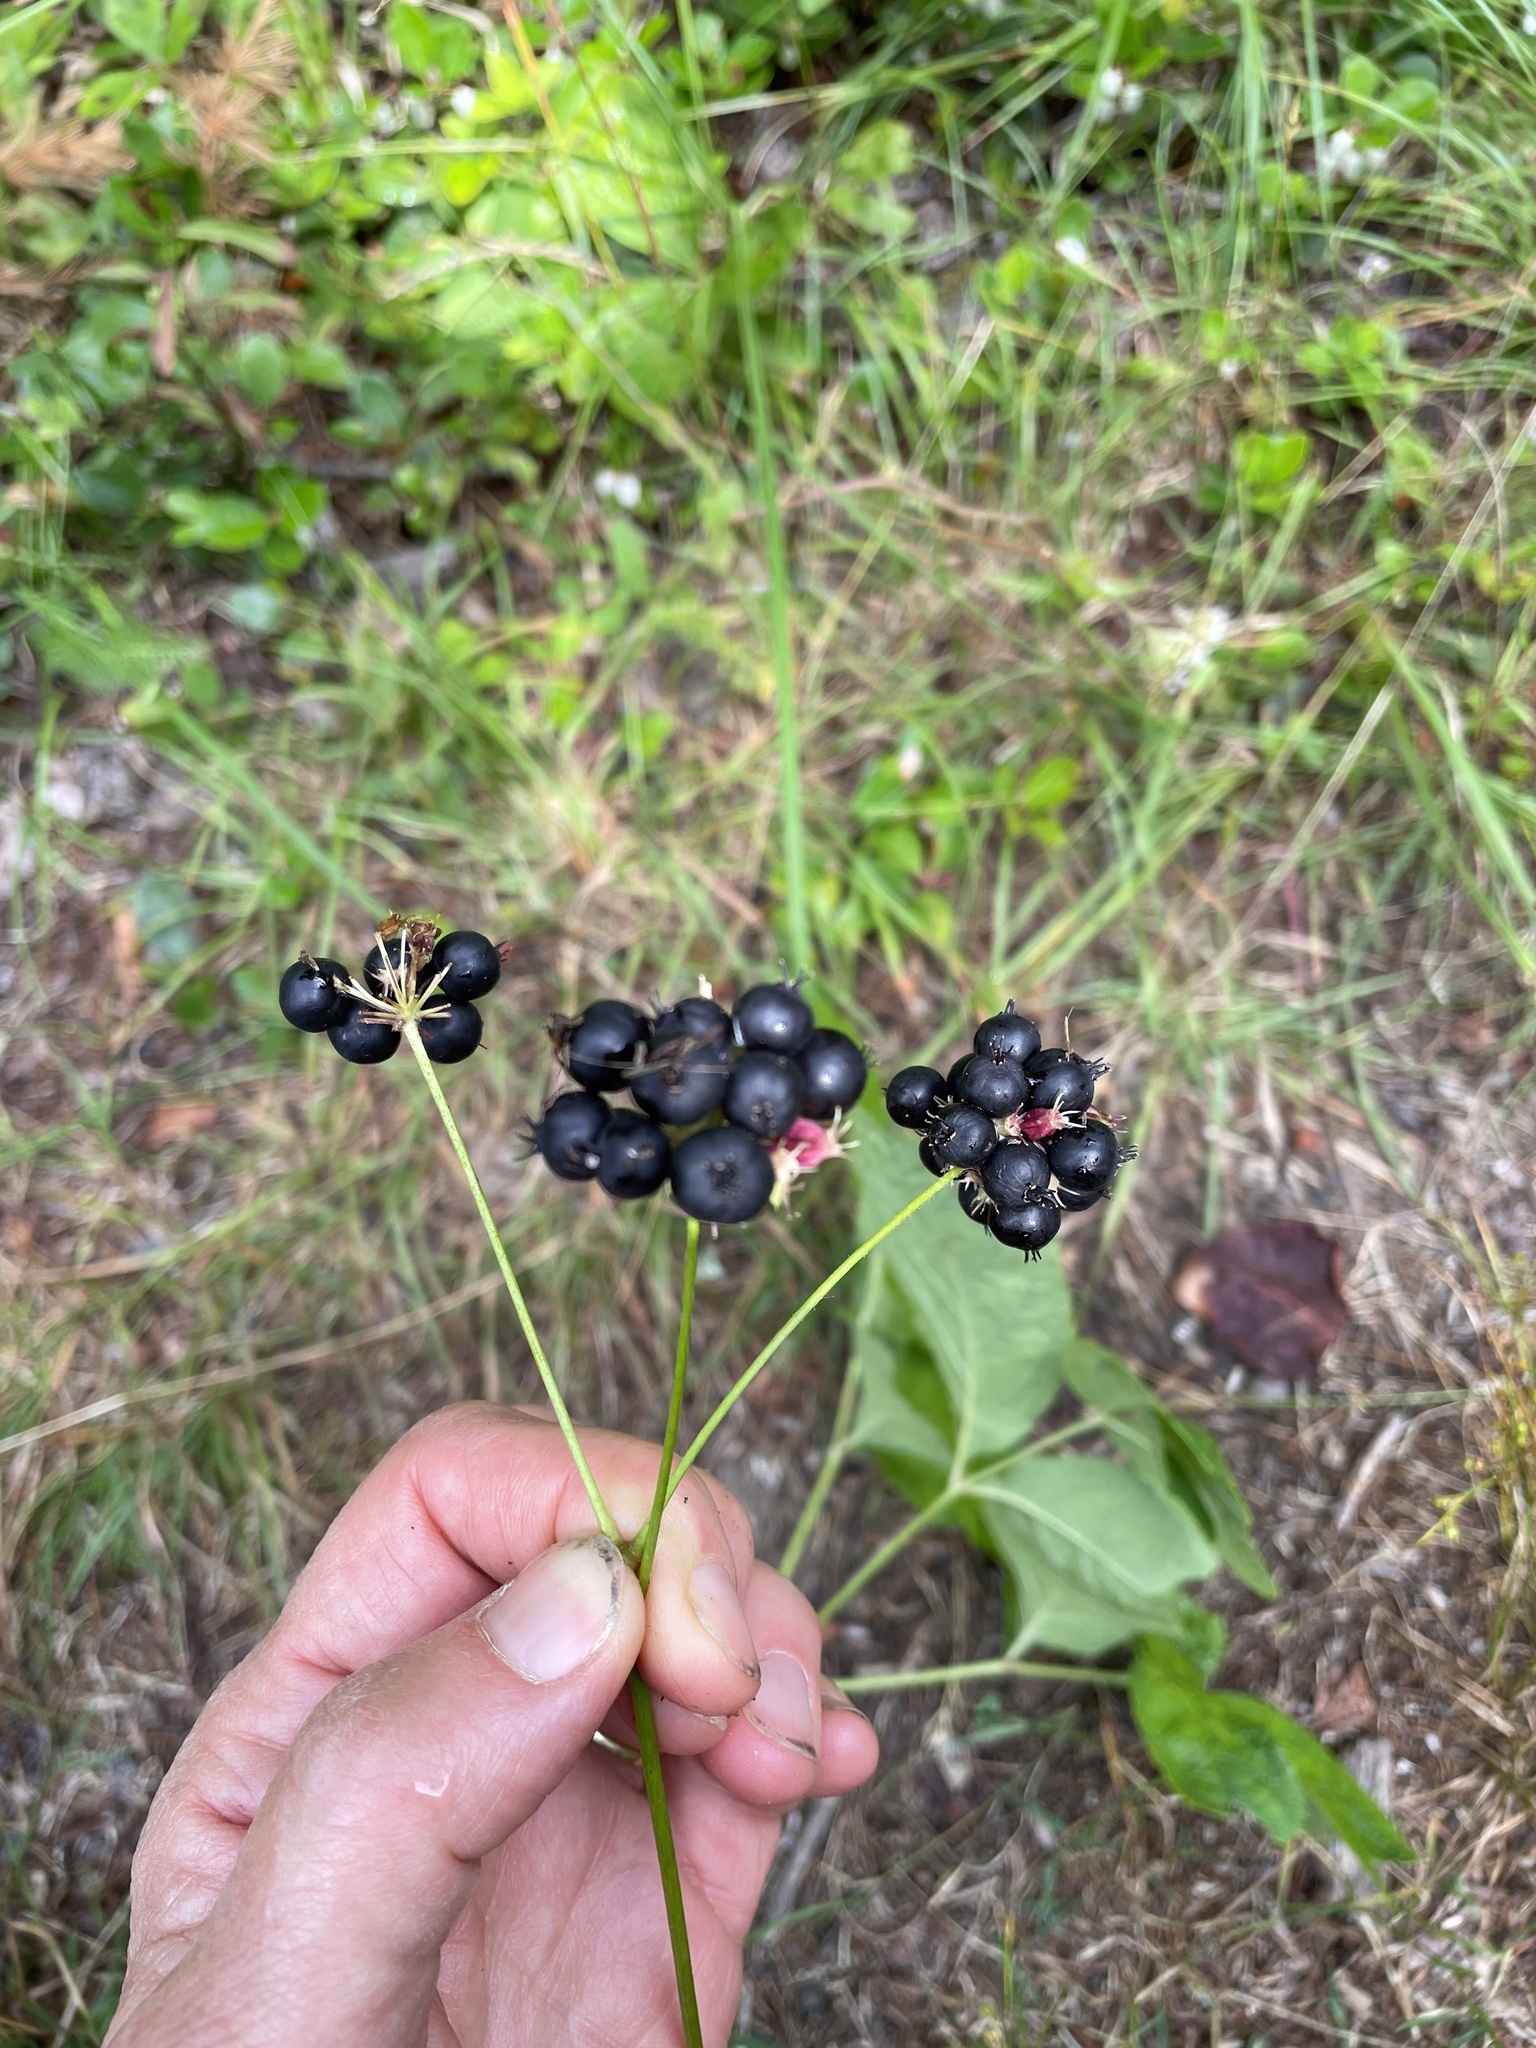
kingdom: Plantae
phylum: Tracheophyta
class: Magnoliopsida
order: Apiales
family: Araliaceae
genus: Aralia
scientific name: Aralia nudicaulis
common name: Wild sarsaparilla
